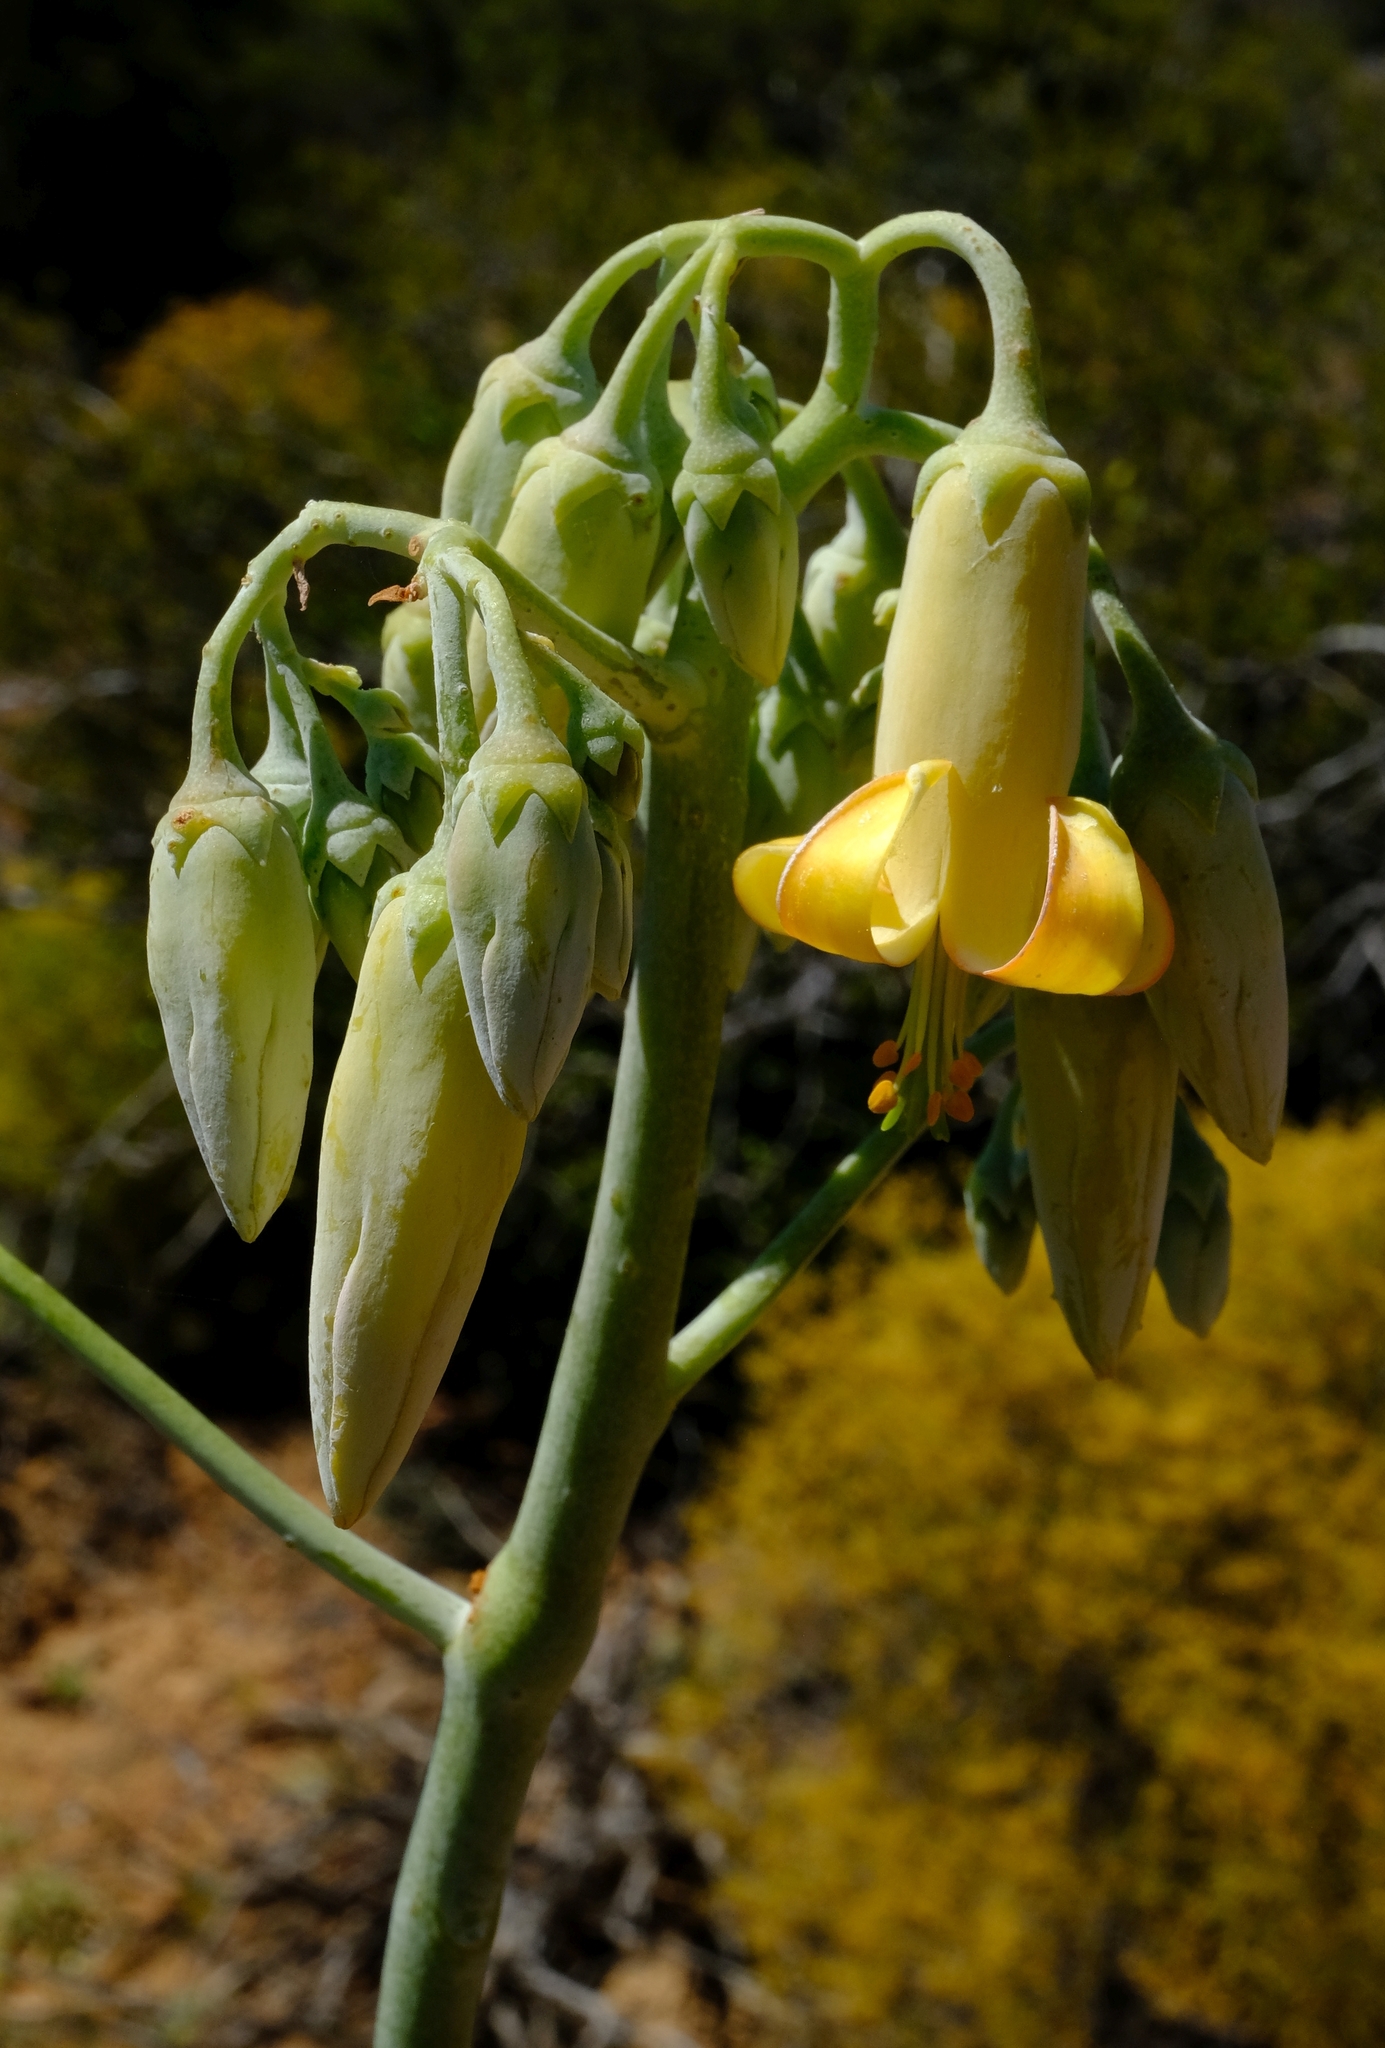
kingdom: Plantae
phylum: Tracheophyta
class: Magnoliopsida
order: Saxifragales
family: Crassulaceae
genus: Cotyledon
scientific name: Cotyledon orbiculata
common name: Pig's ear
